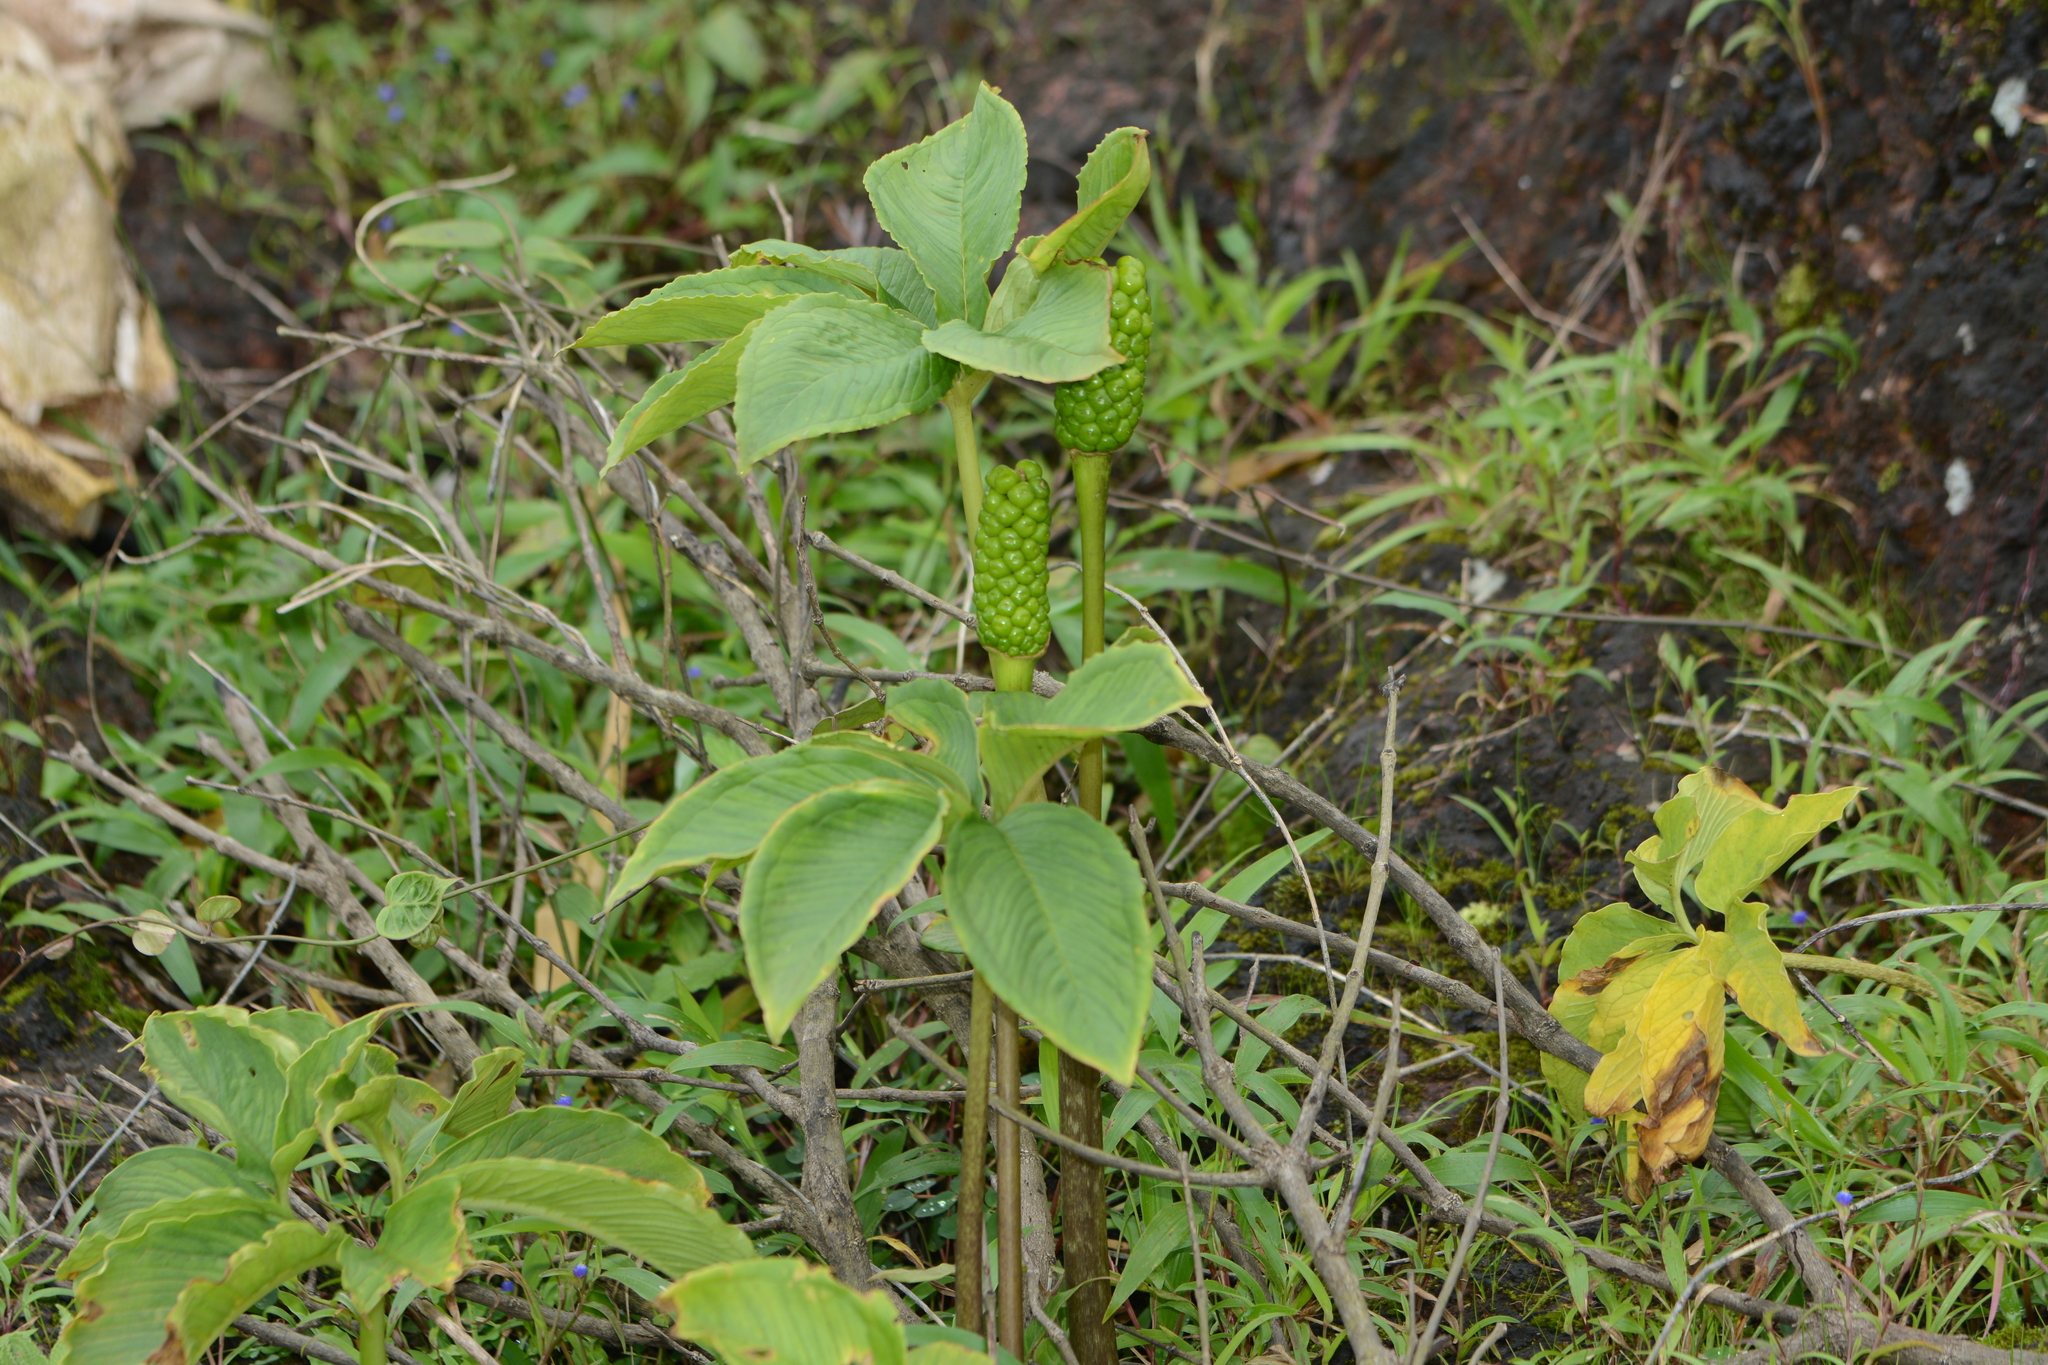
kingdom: Plantae
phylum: Tracheophyta
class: Liliopsida
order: Alismatales
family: Araceae
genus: Arisaema
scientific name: Arisaema murrayi
